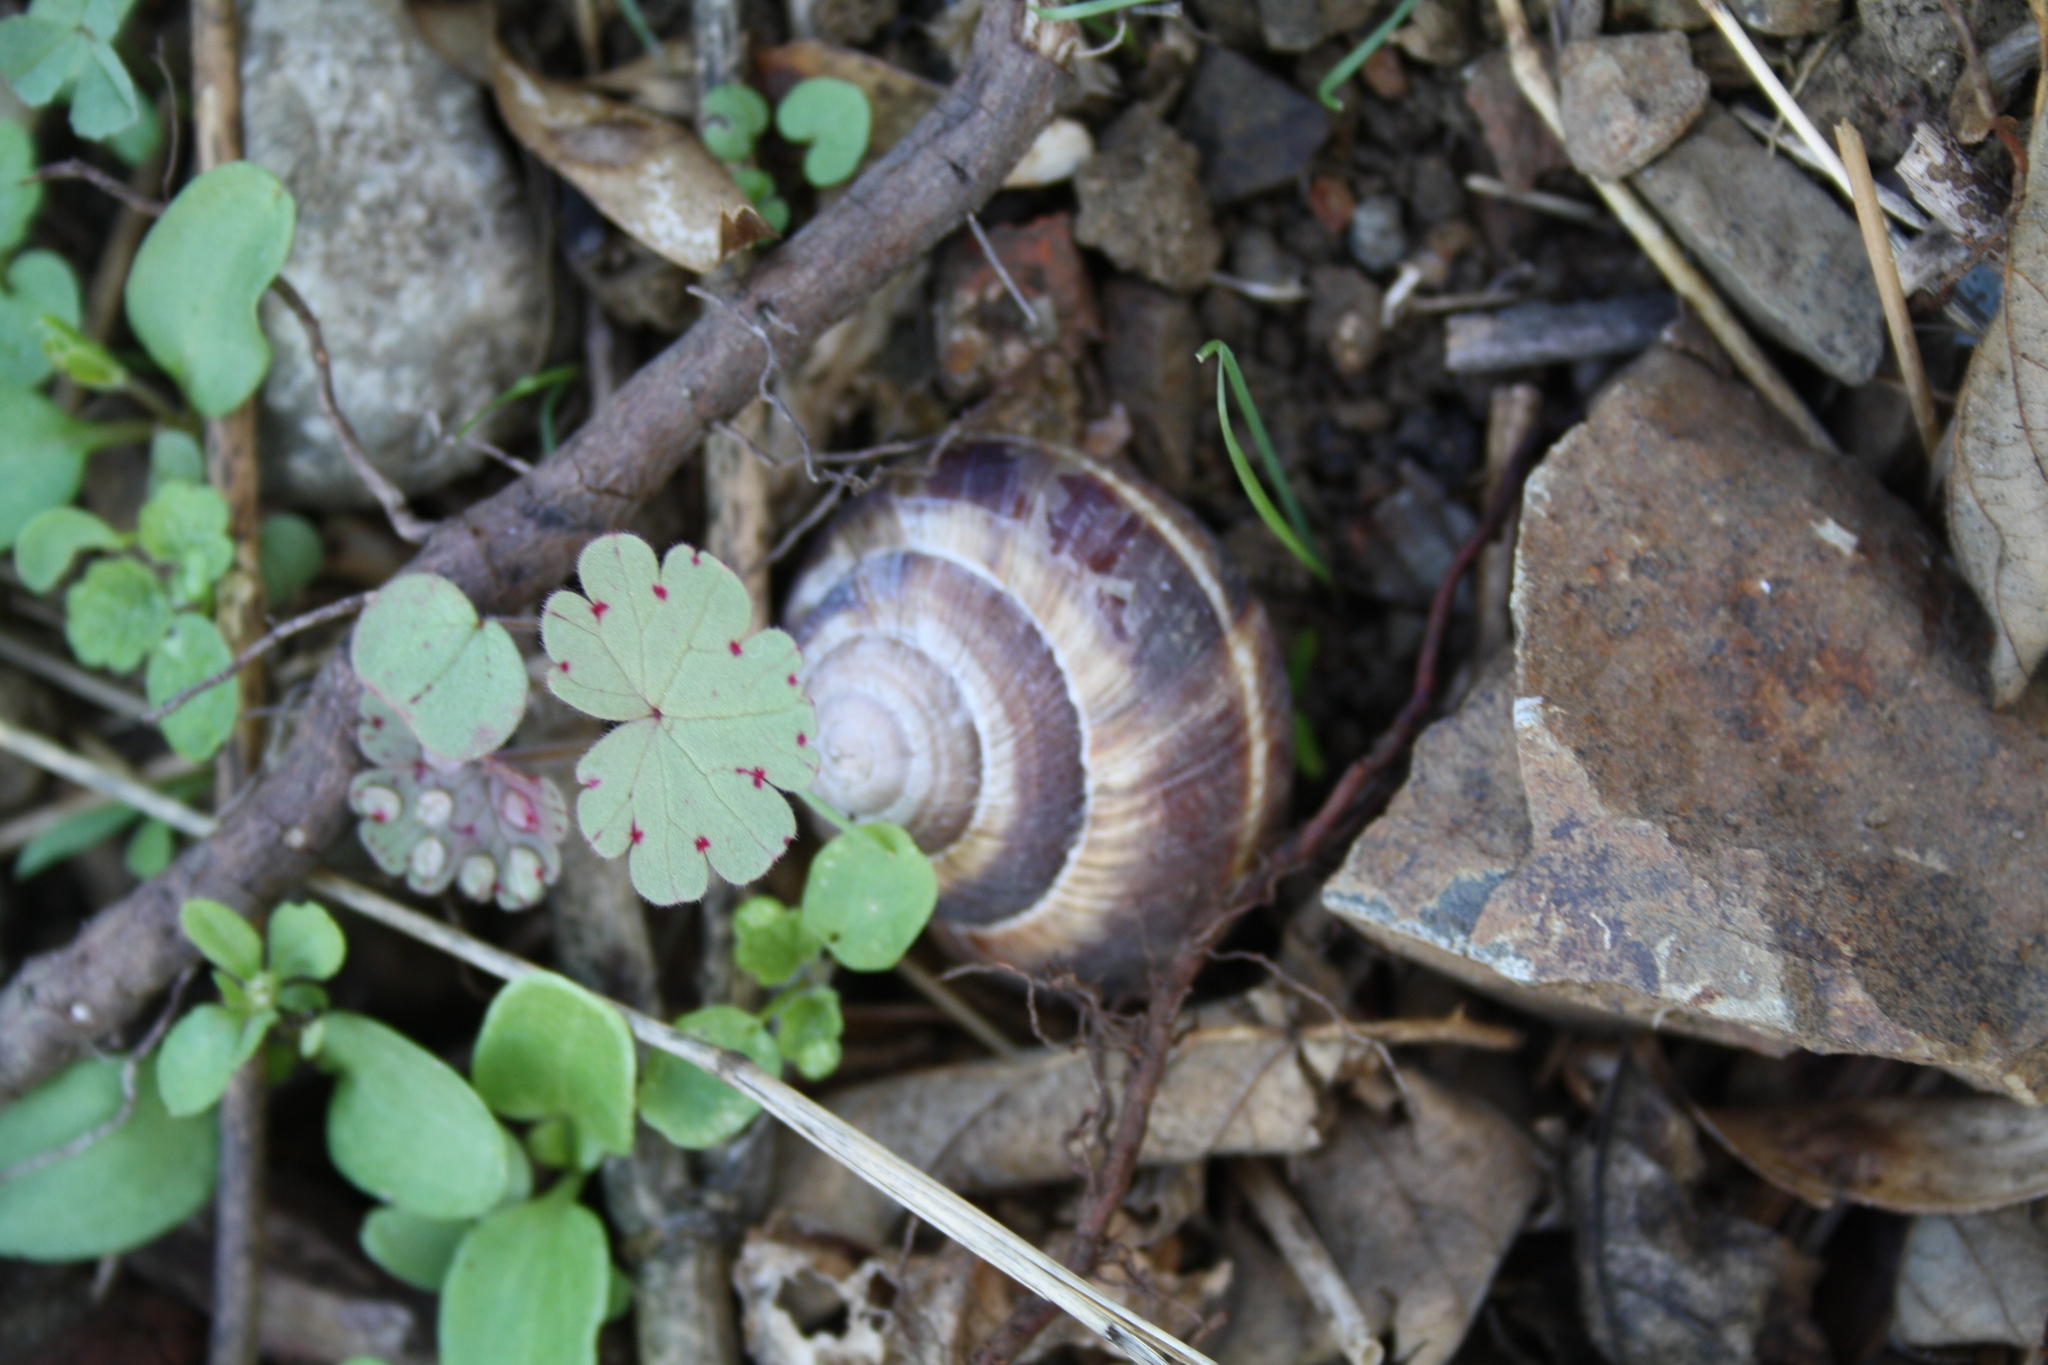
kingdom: Animalia
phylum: Mollusca
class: Gastropoda
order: Stylommatophora
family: Helicidae
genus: Helix
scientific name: Helix lucorum
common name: Turkish snail
